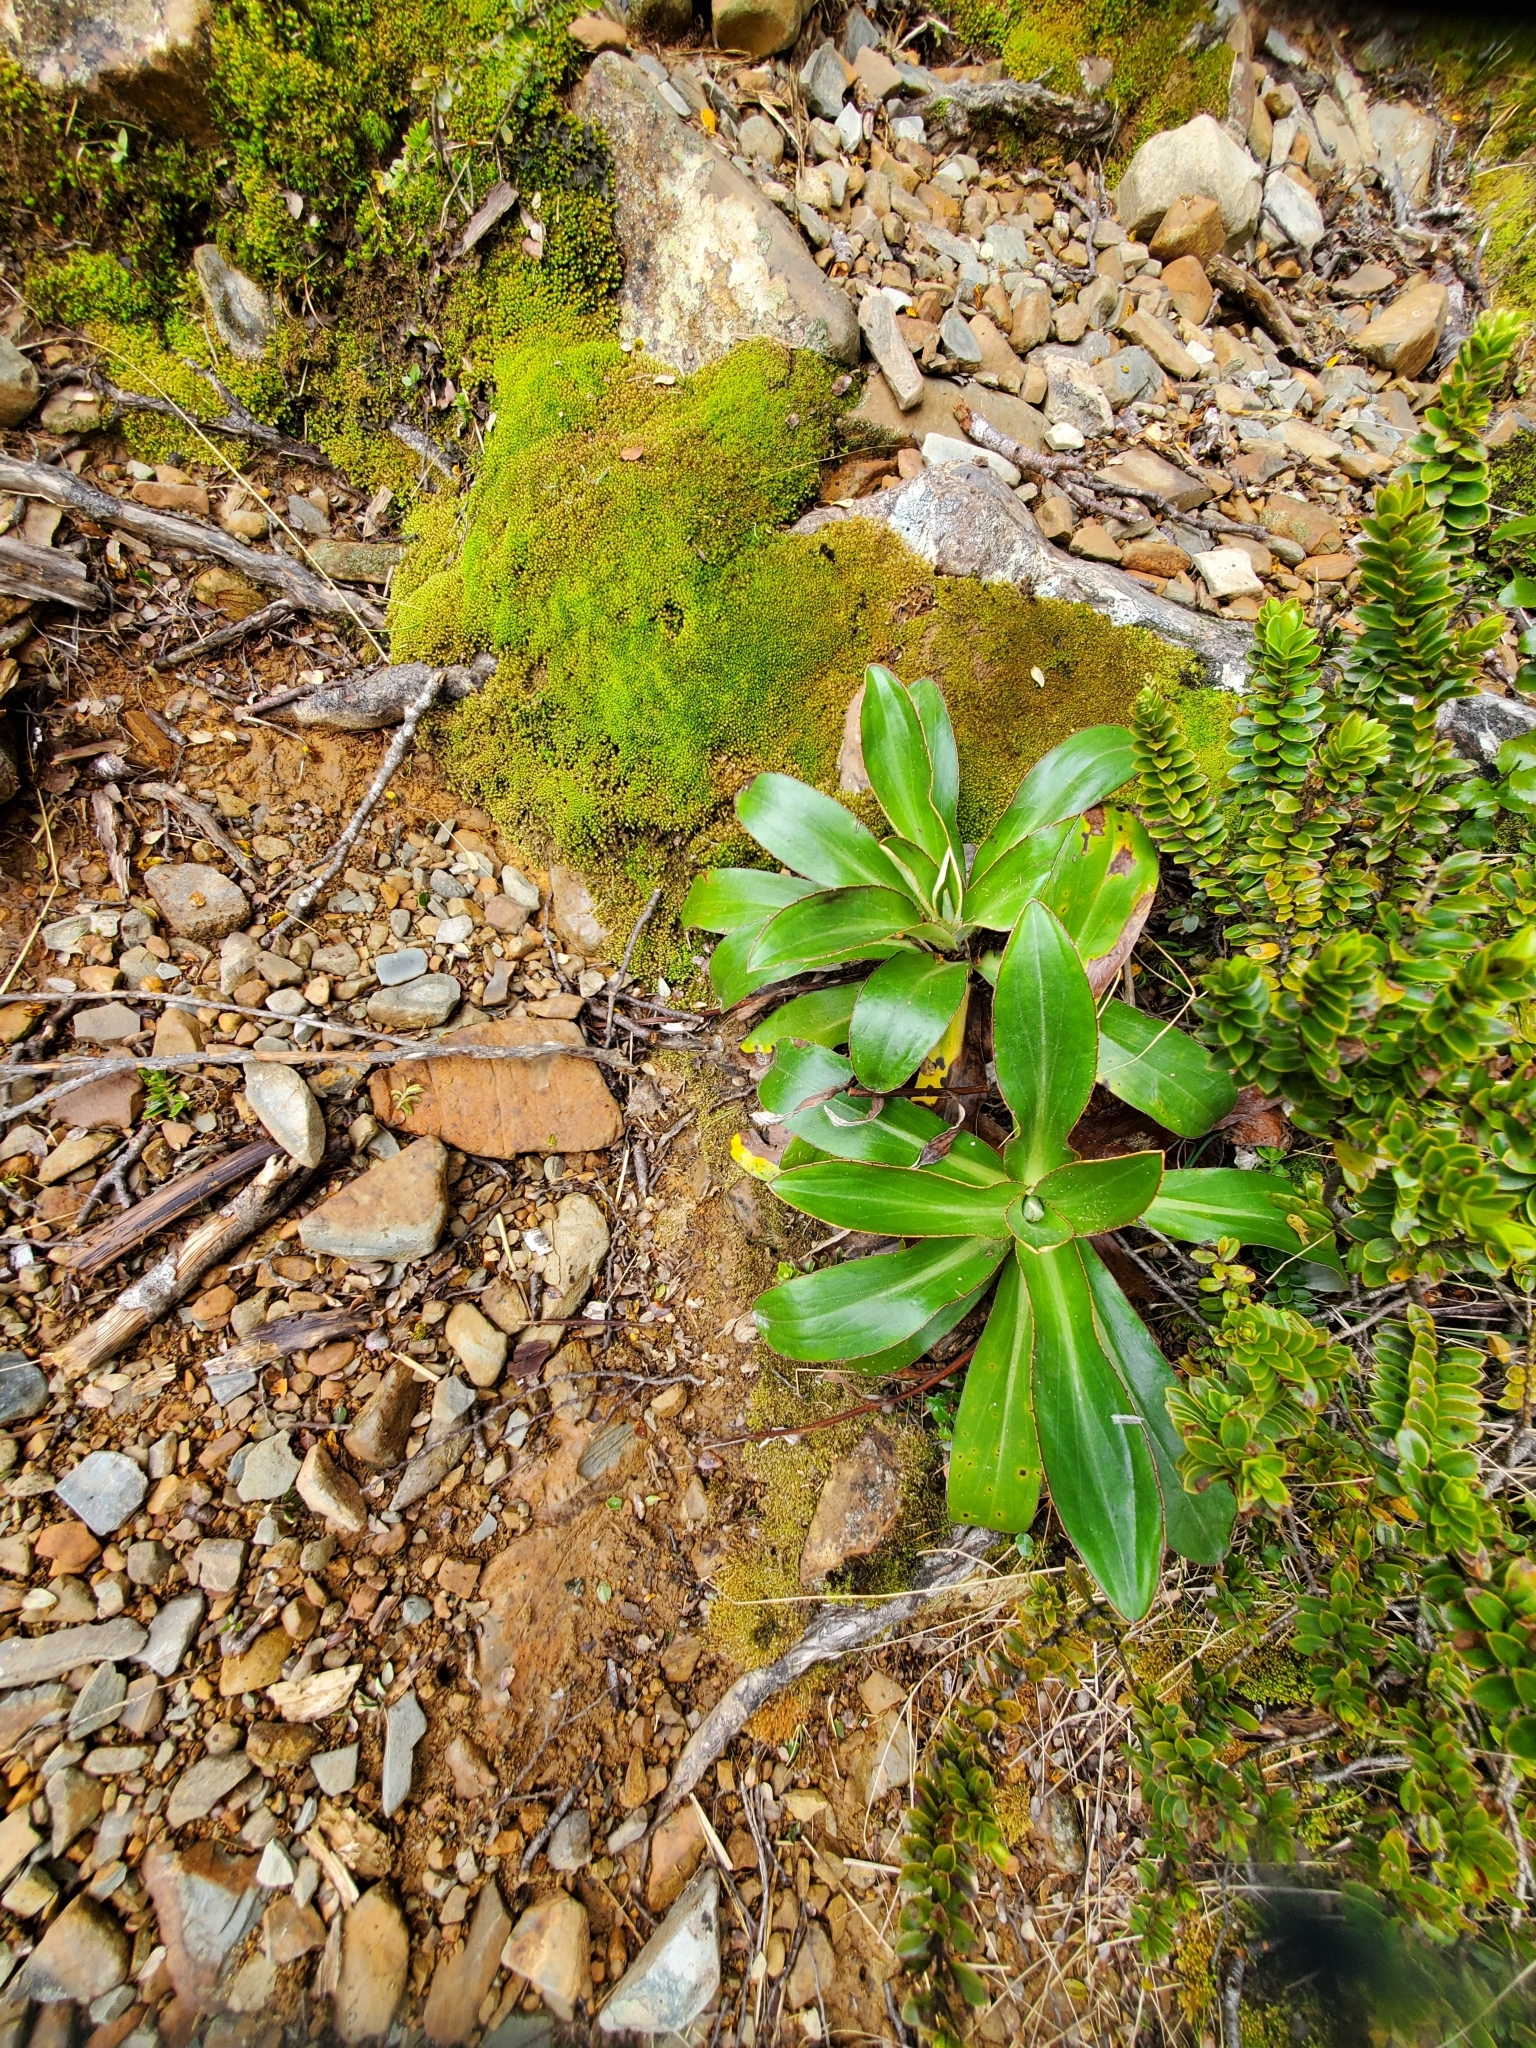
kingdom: Plantae
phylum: Tracheophyta
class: Magnoliopsida
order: Asterales
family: Asteraceae
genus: Celmisia
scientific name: Celmisia dallii
